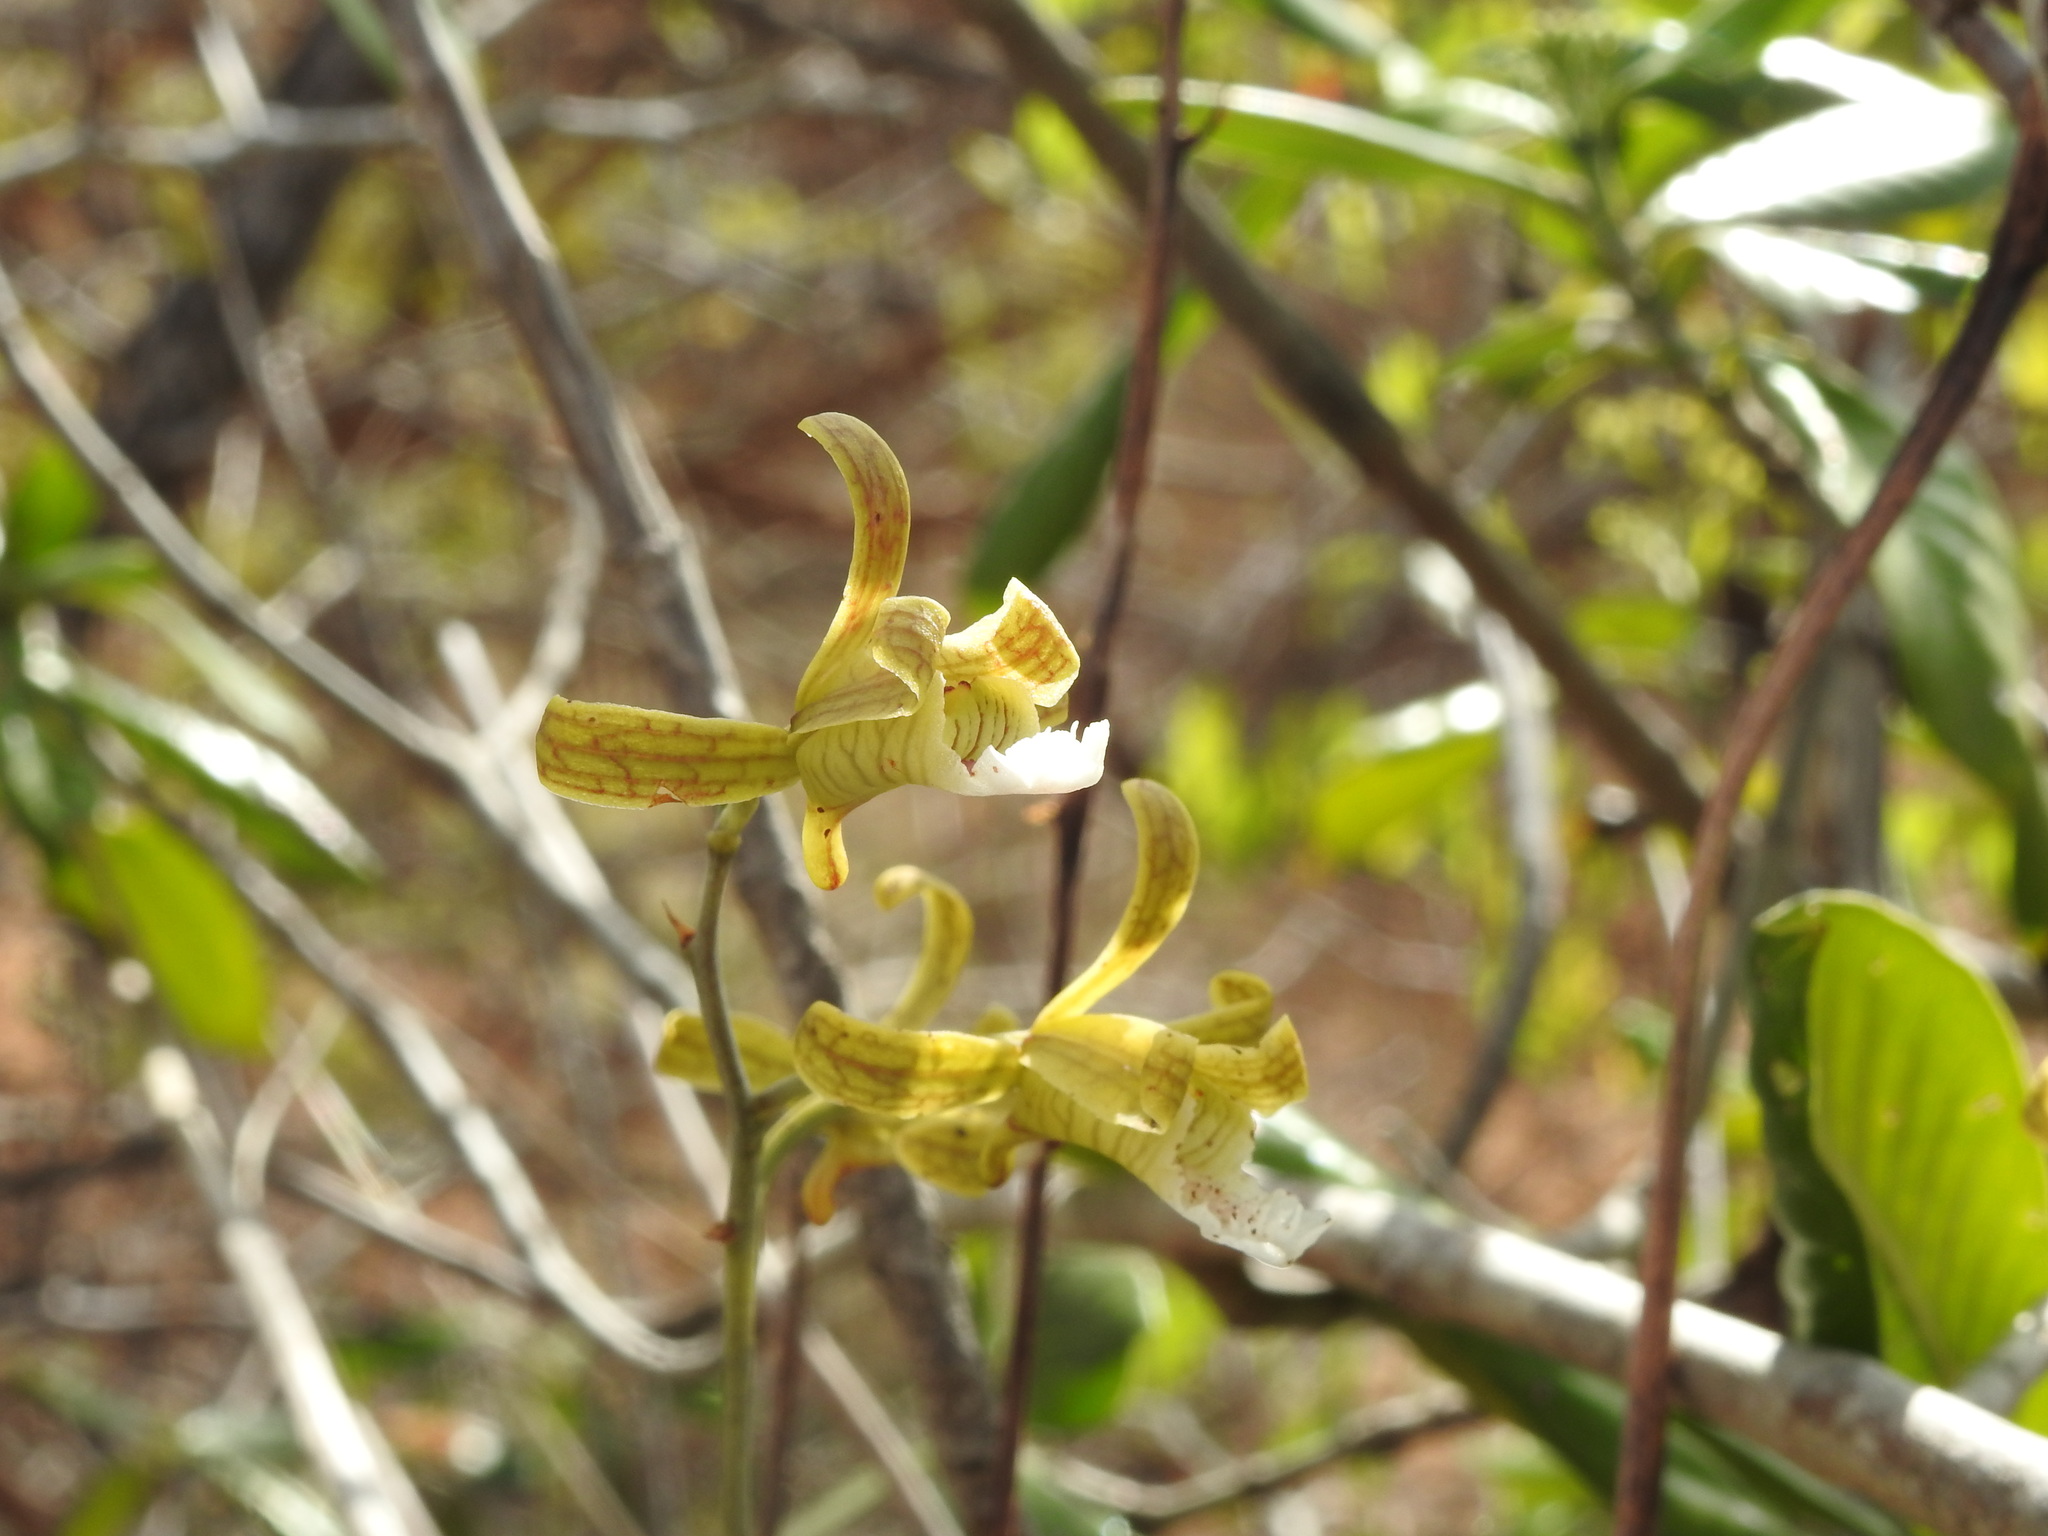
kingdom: Plantae
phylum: Tracheophyta
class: Liliopsida
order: Asparagales
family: Orchidaceae
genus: Eulophia
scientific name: Eulophia epidendraea
